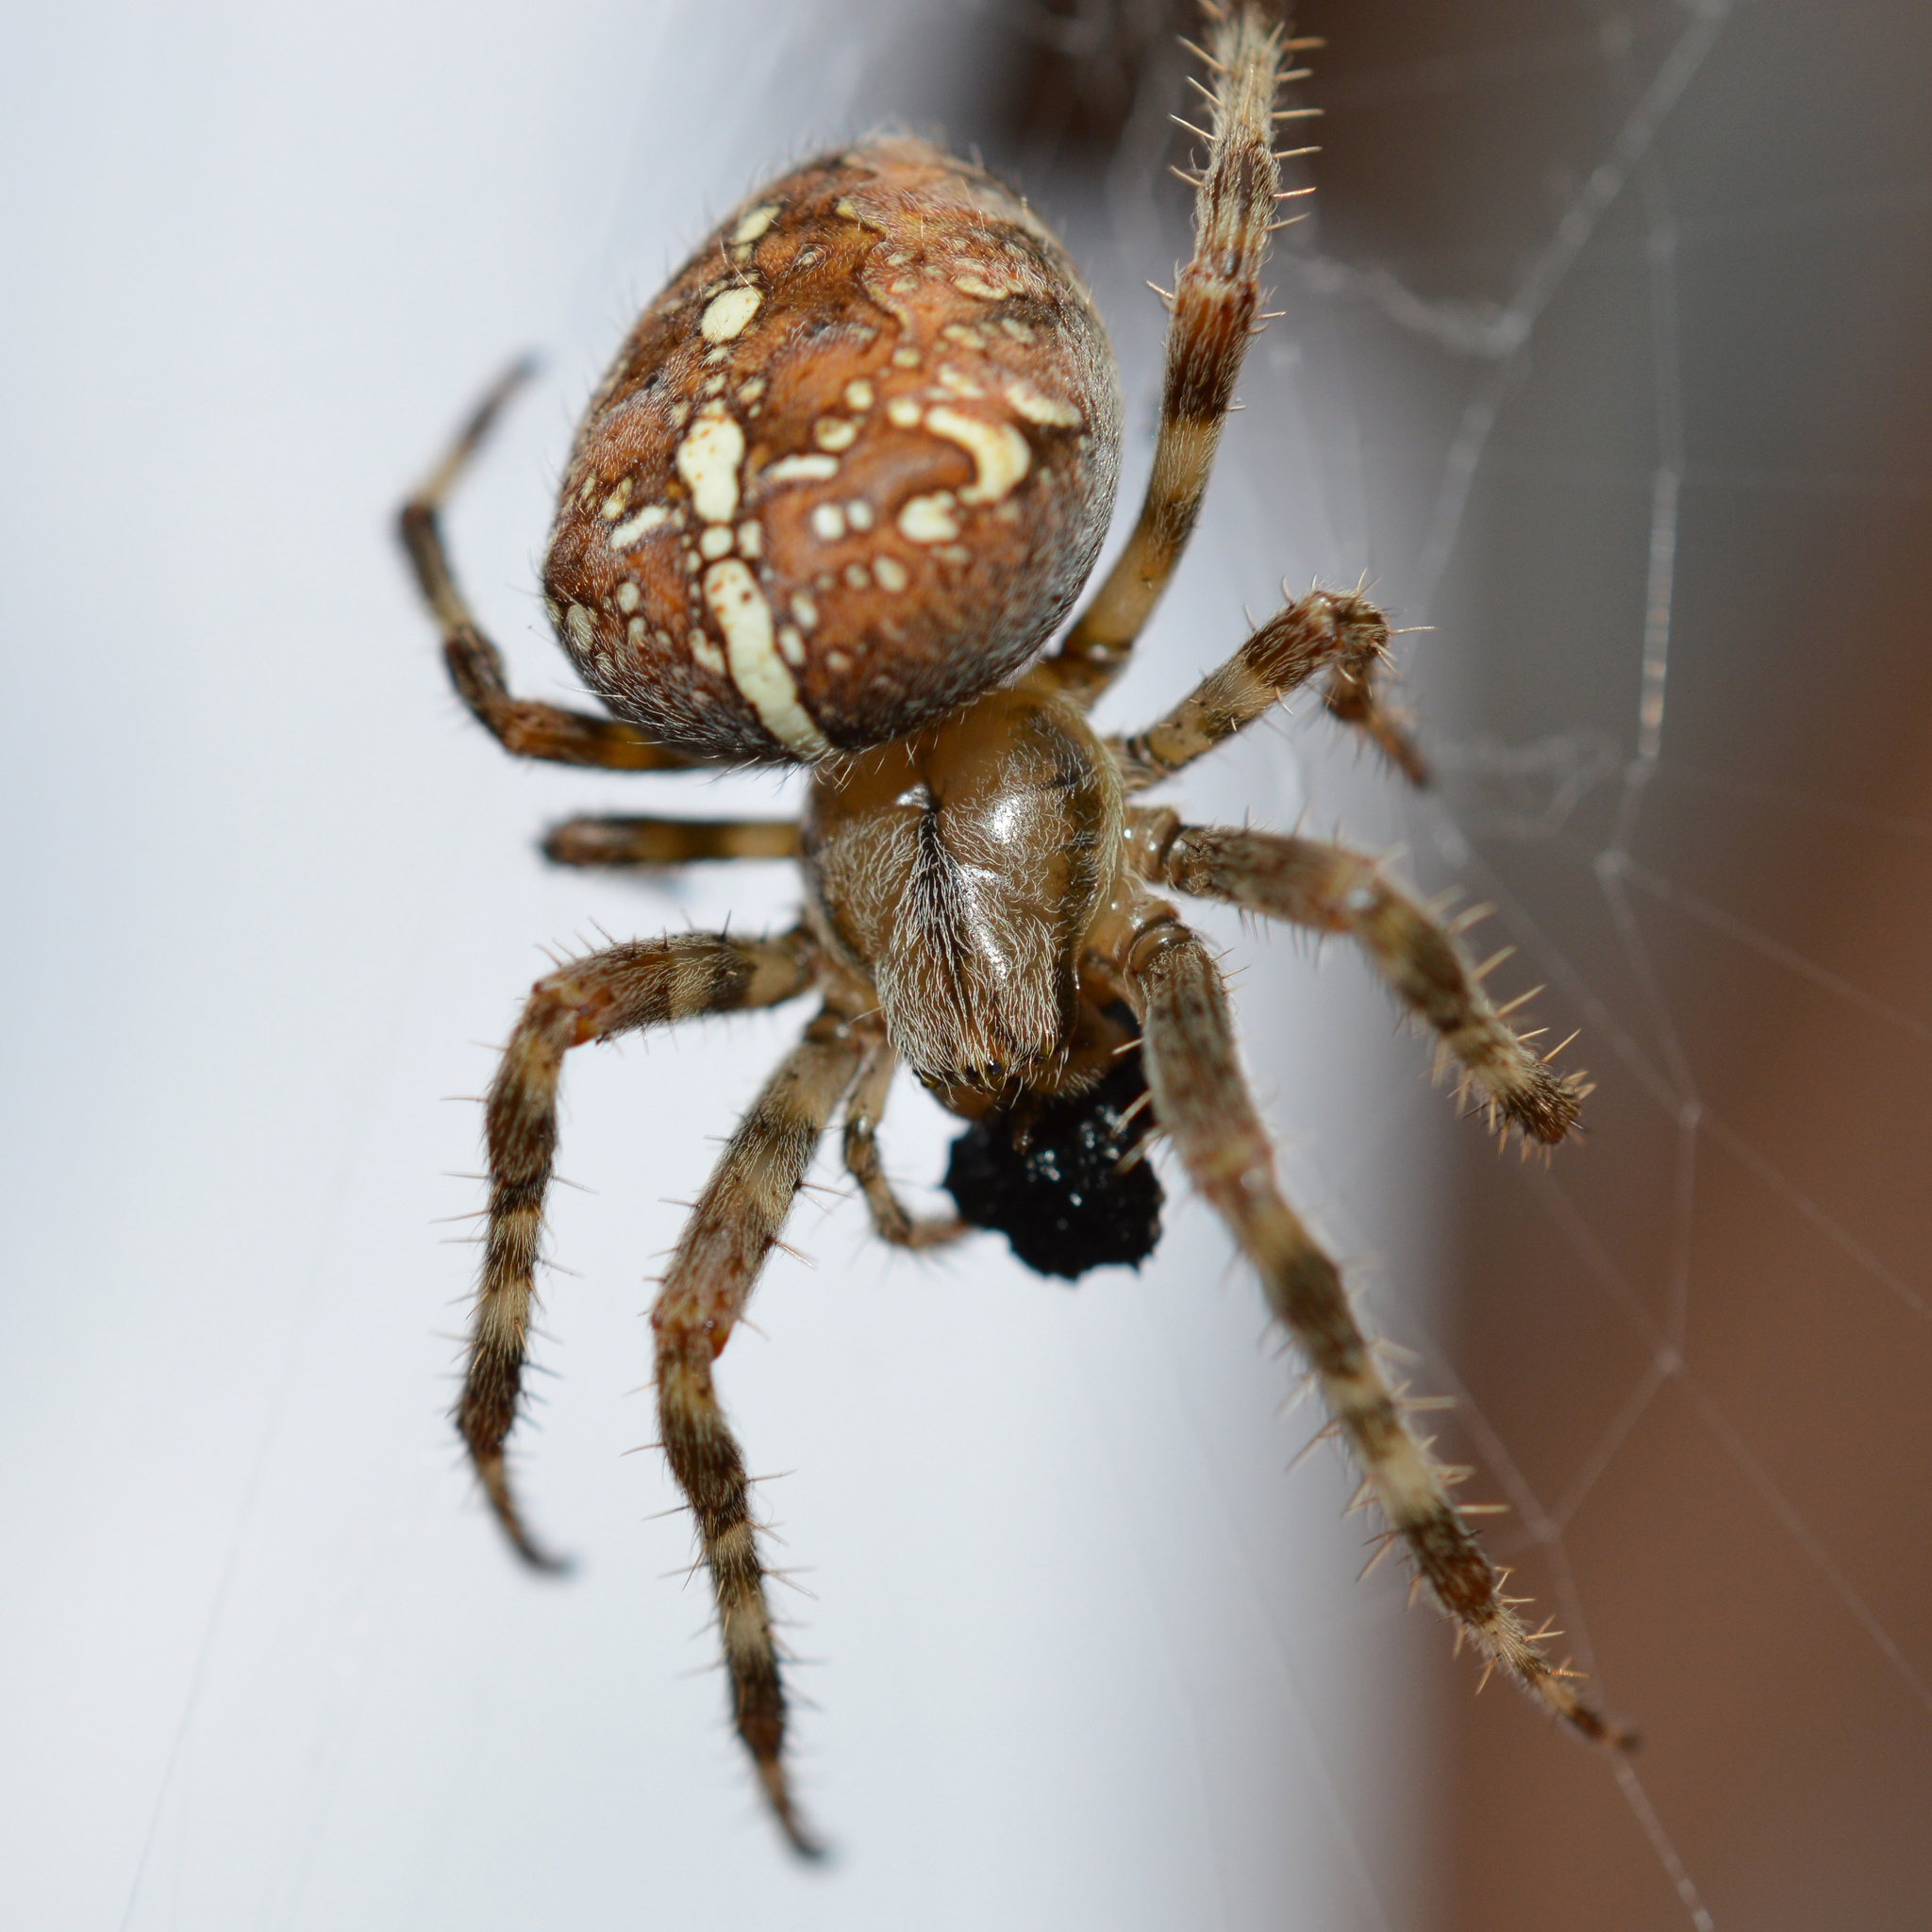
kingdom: Animalia
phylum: Arthropoda
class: Arachnida
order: Araneae
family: Araneidae
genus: Araneus
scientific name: Araneus diadematus
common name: Cross orbweaver
